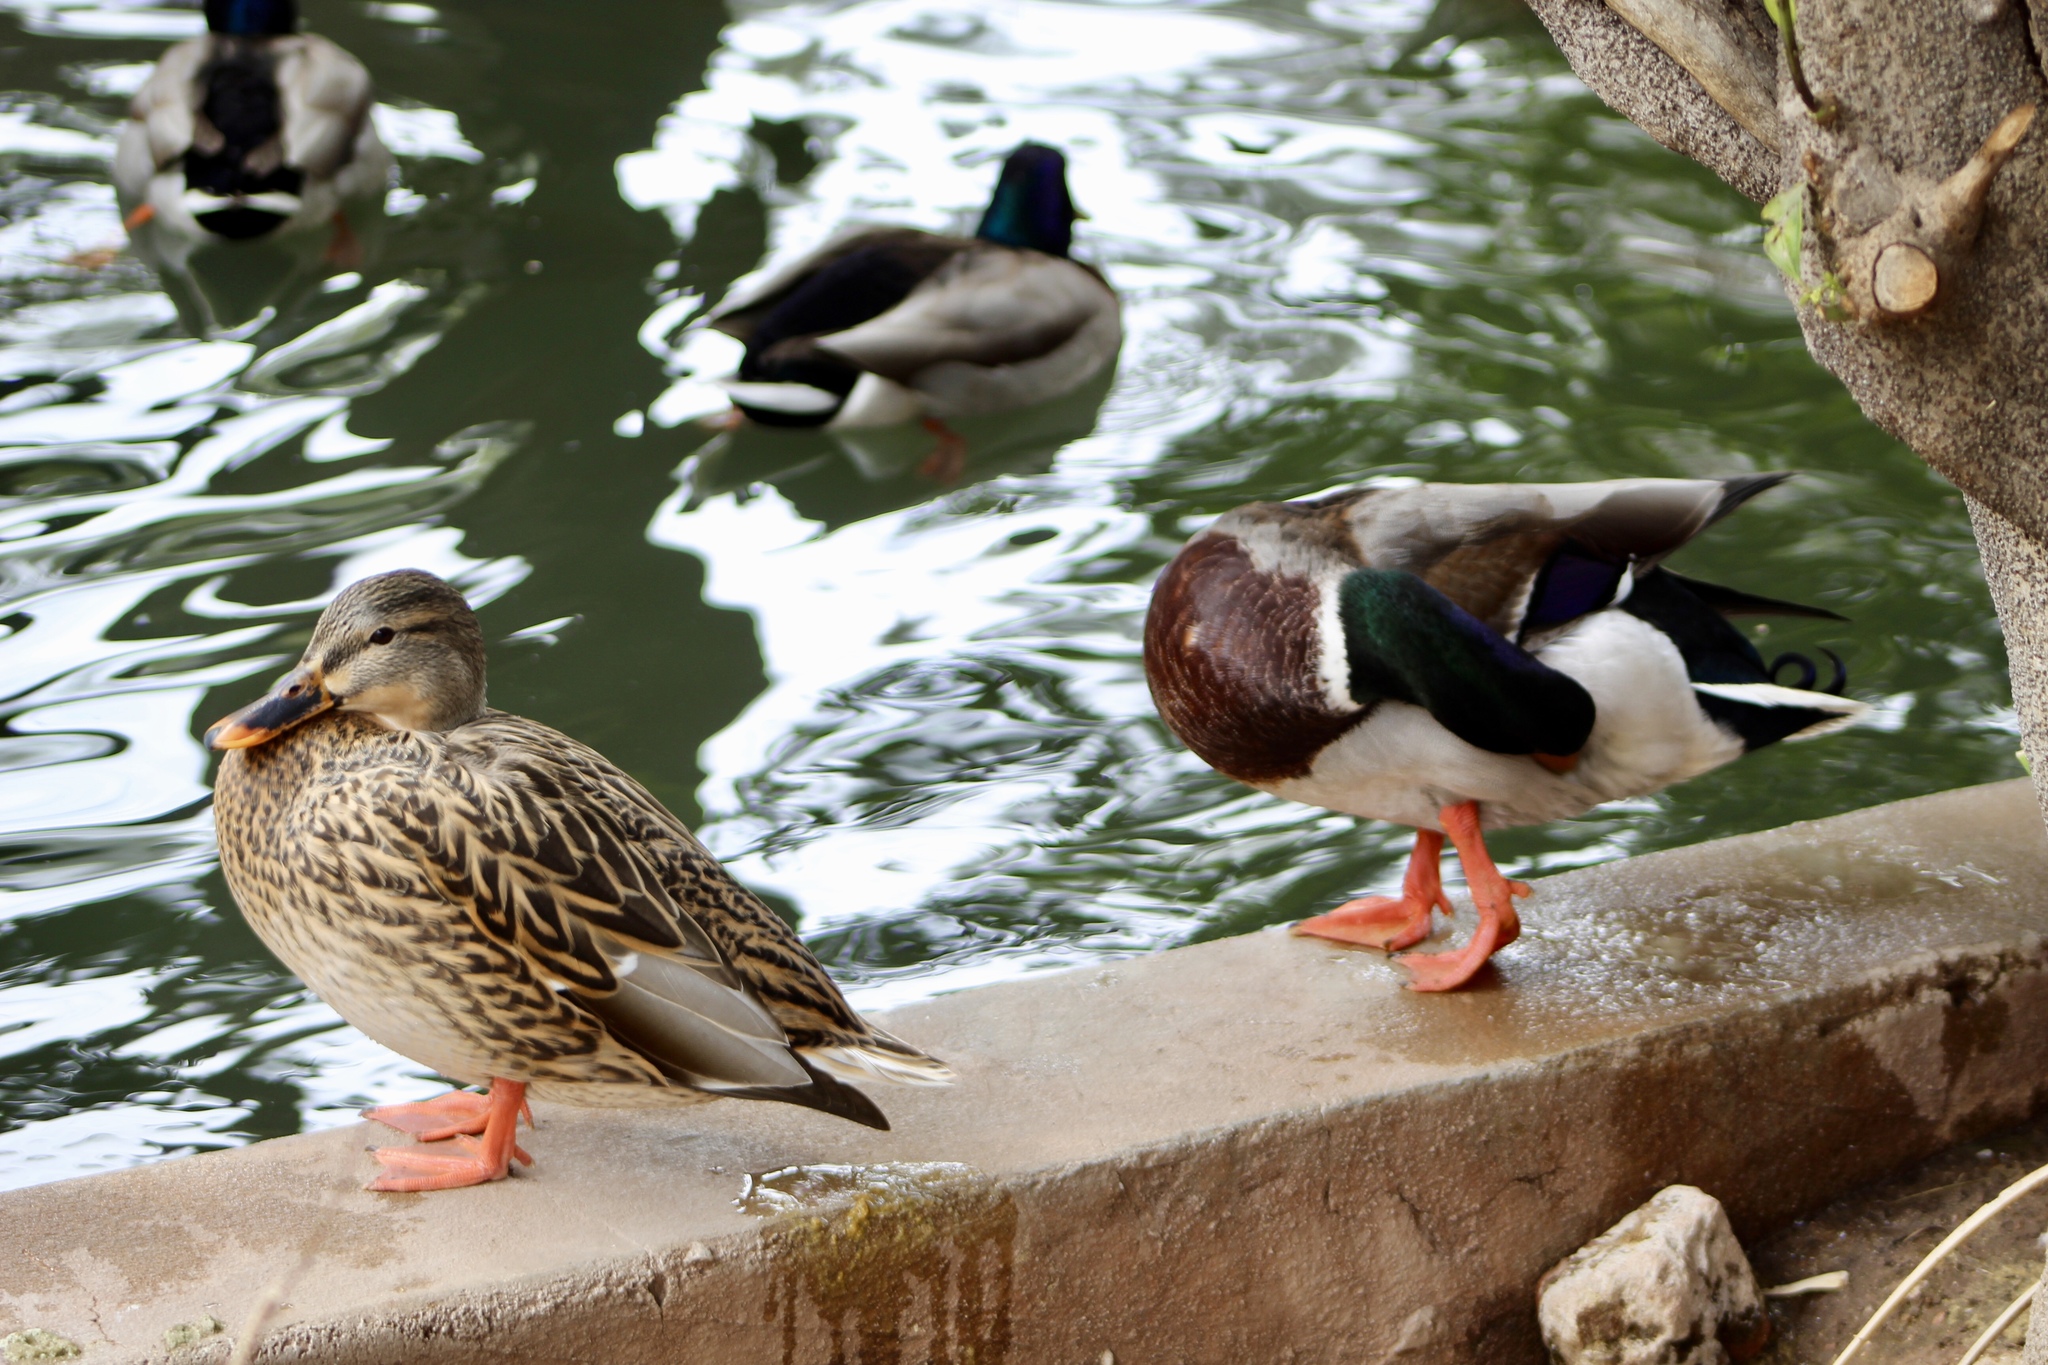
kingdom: Animalia
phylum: Chordata
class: Aves
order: Anseriformes
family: Anatidae
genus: Anas
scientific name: Anas platyrhynchos
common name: Mallard
